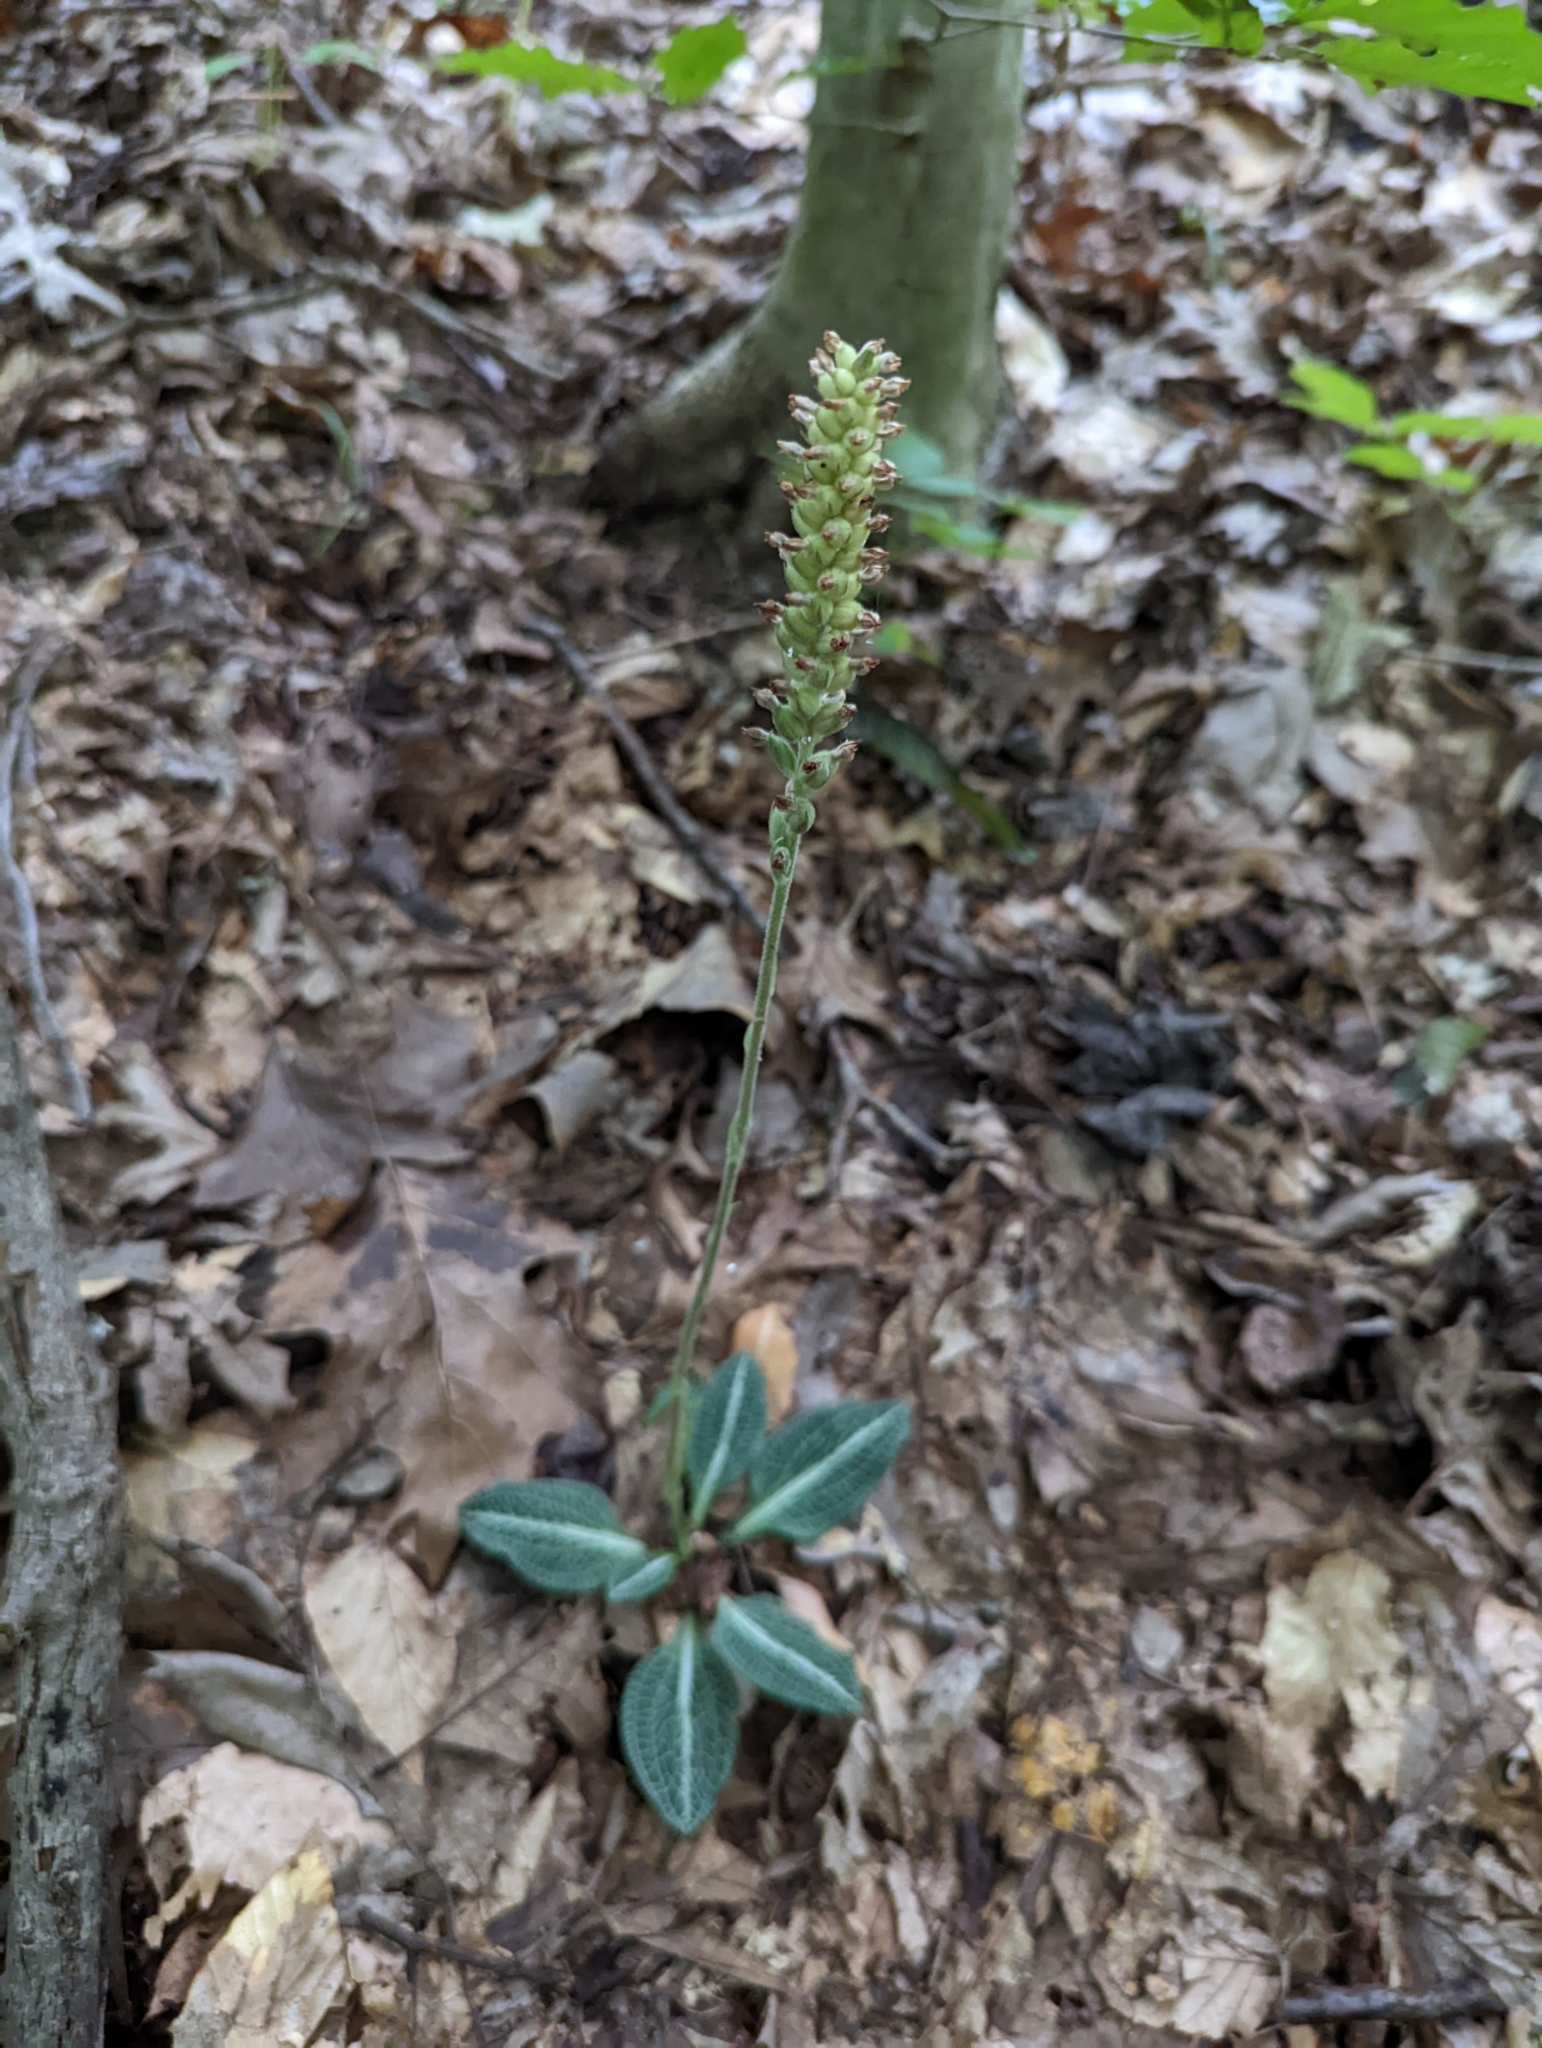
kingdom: Plantae
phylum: Tracheophyta
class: Liliopsida
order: Asparagales
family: Orchidaceae
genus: Goodyera
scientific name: Goodyera pubescens
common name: Downy rattlesnake-plantain
